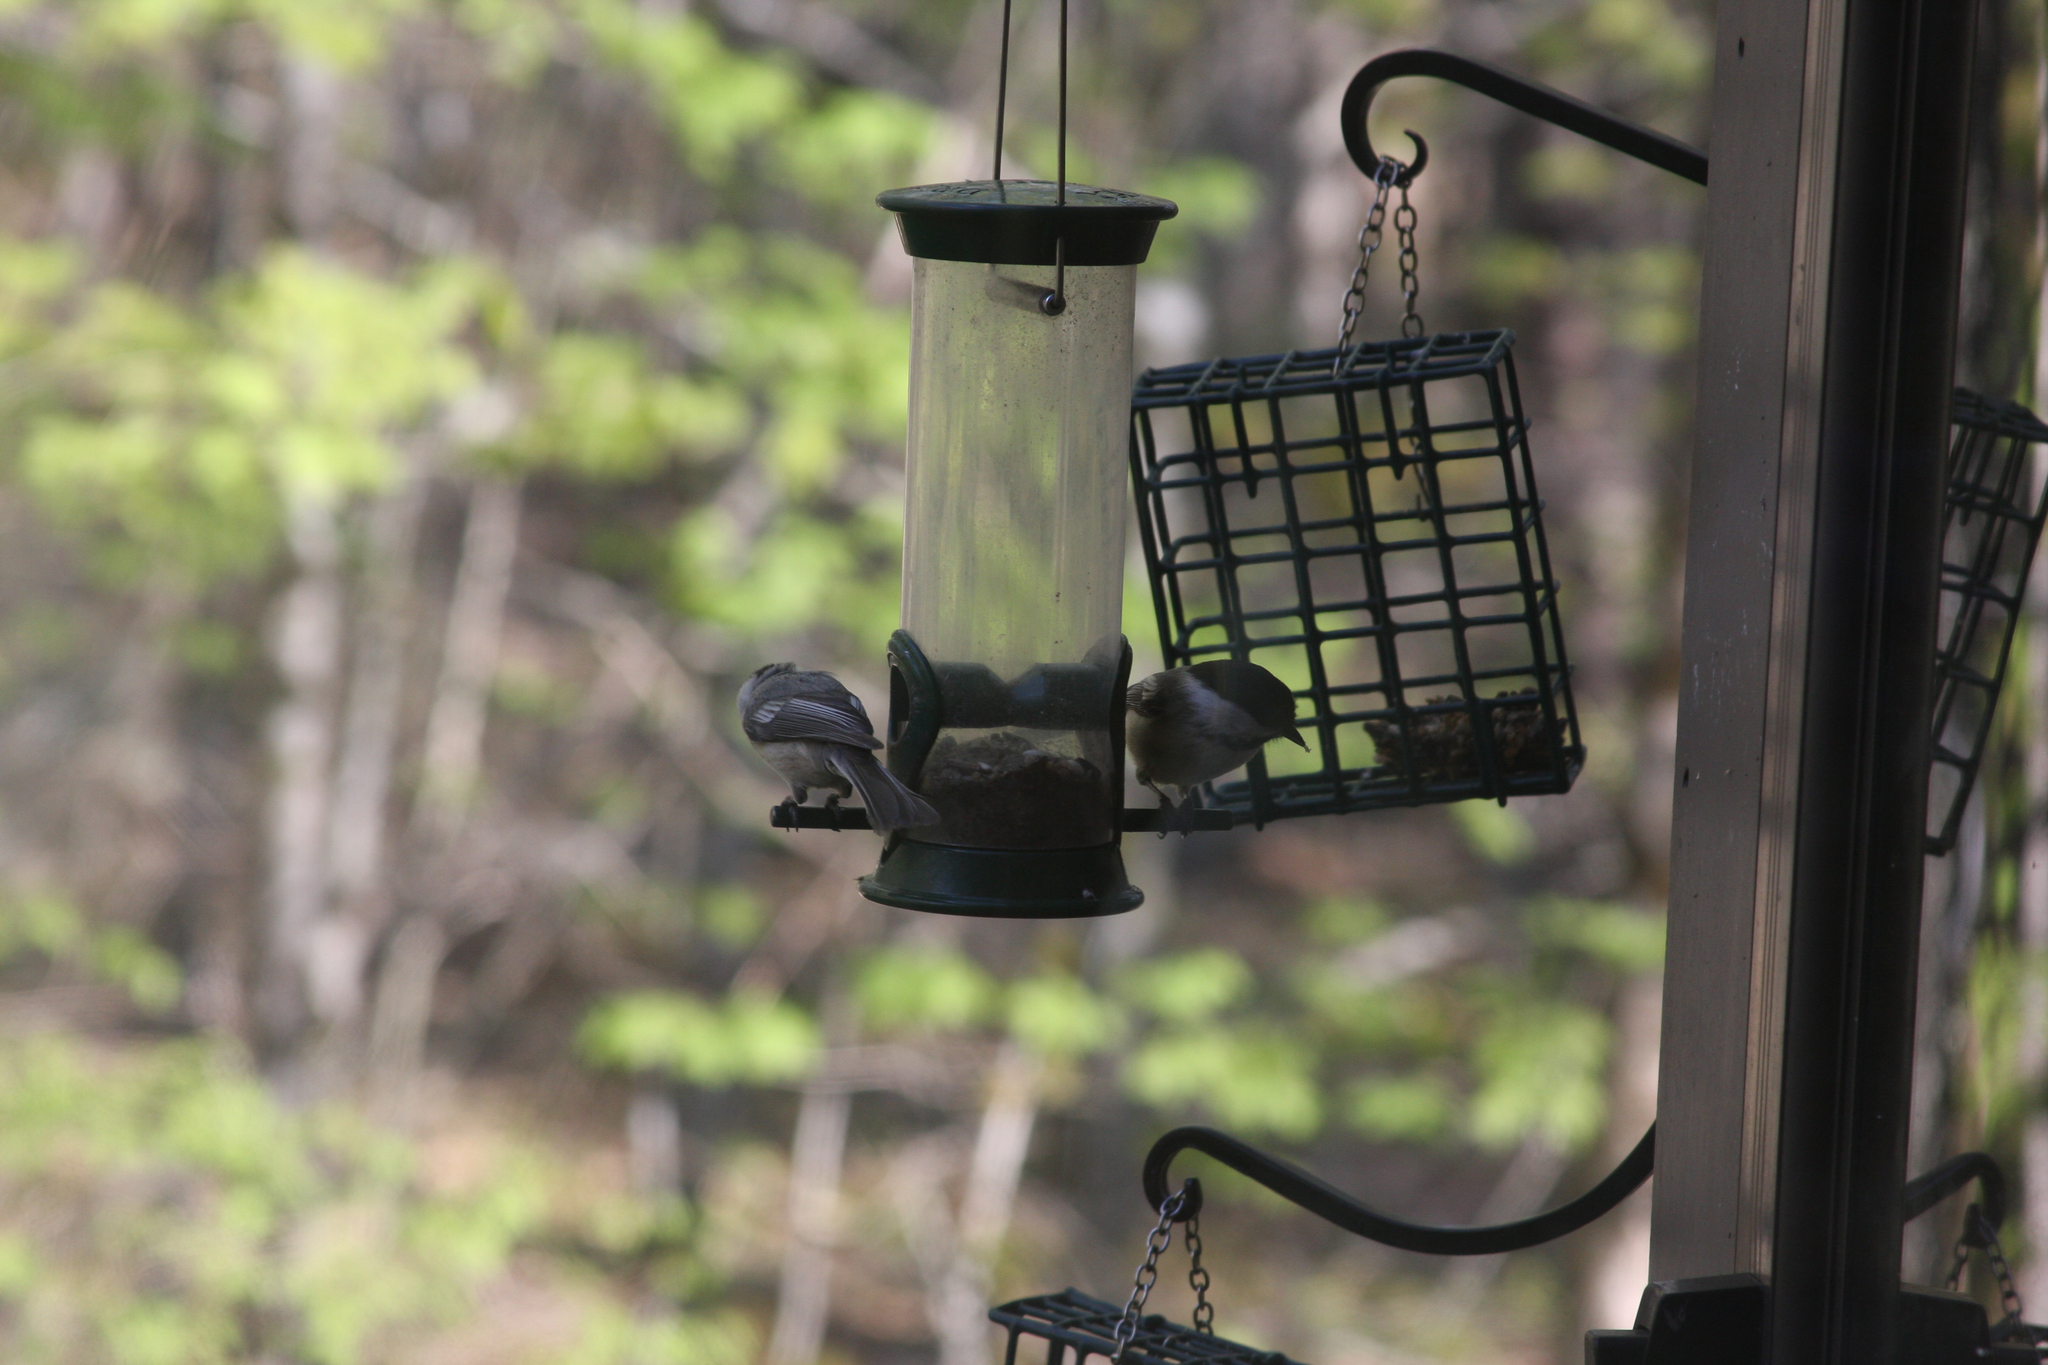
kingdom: Animalia
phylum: Chordata
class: Aves
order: Passeriformes
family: Paridae
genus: Poecile
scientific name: Poecile atricapillus
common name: Black-capped chickadee
